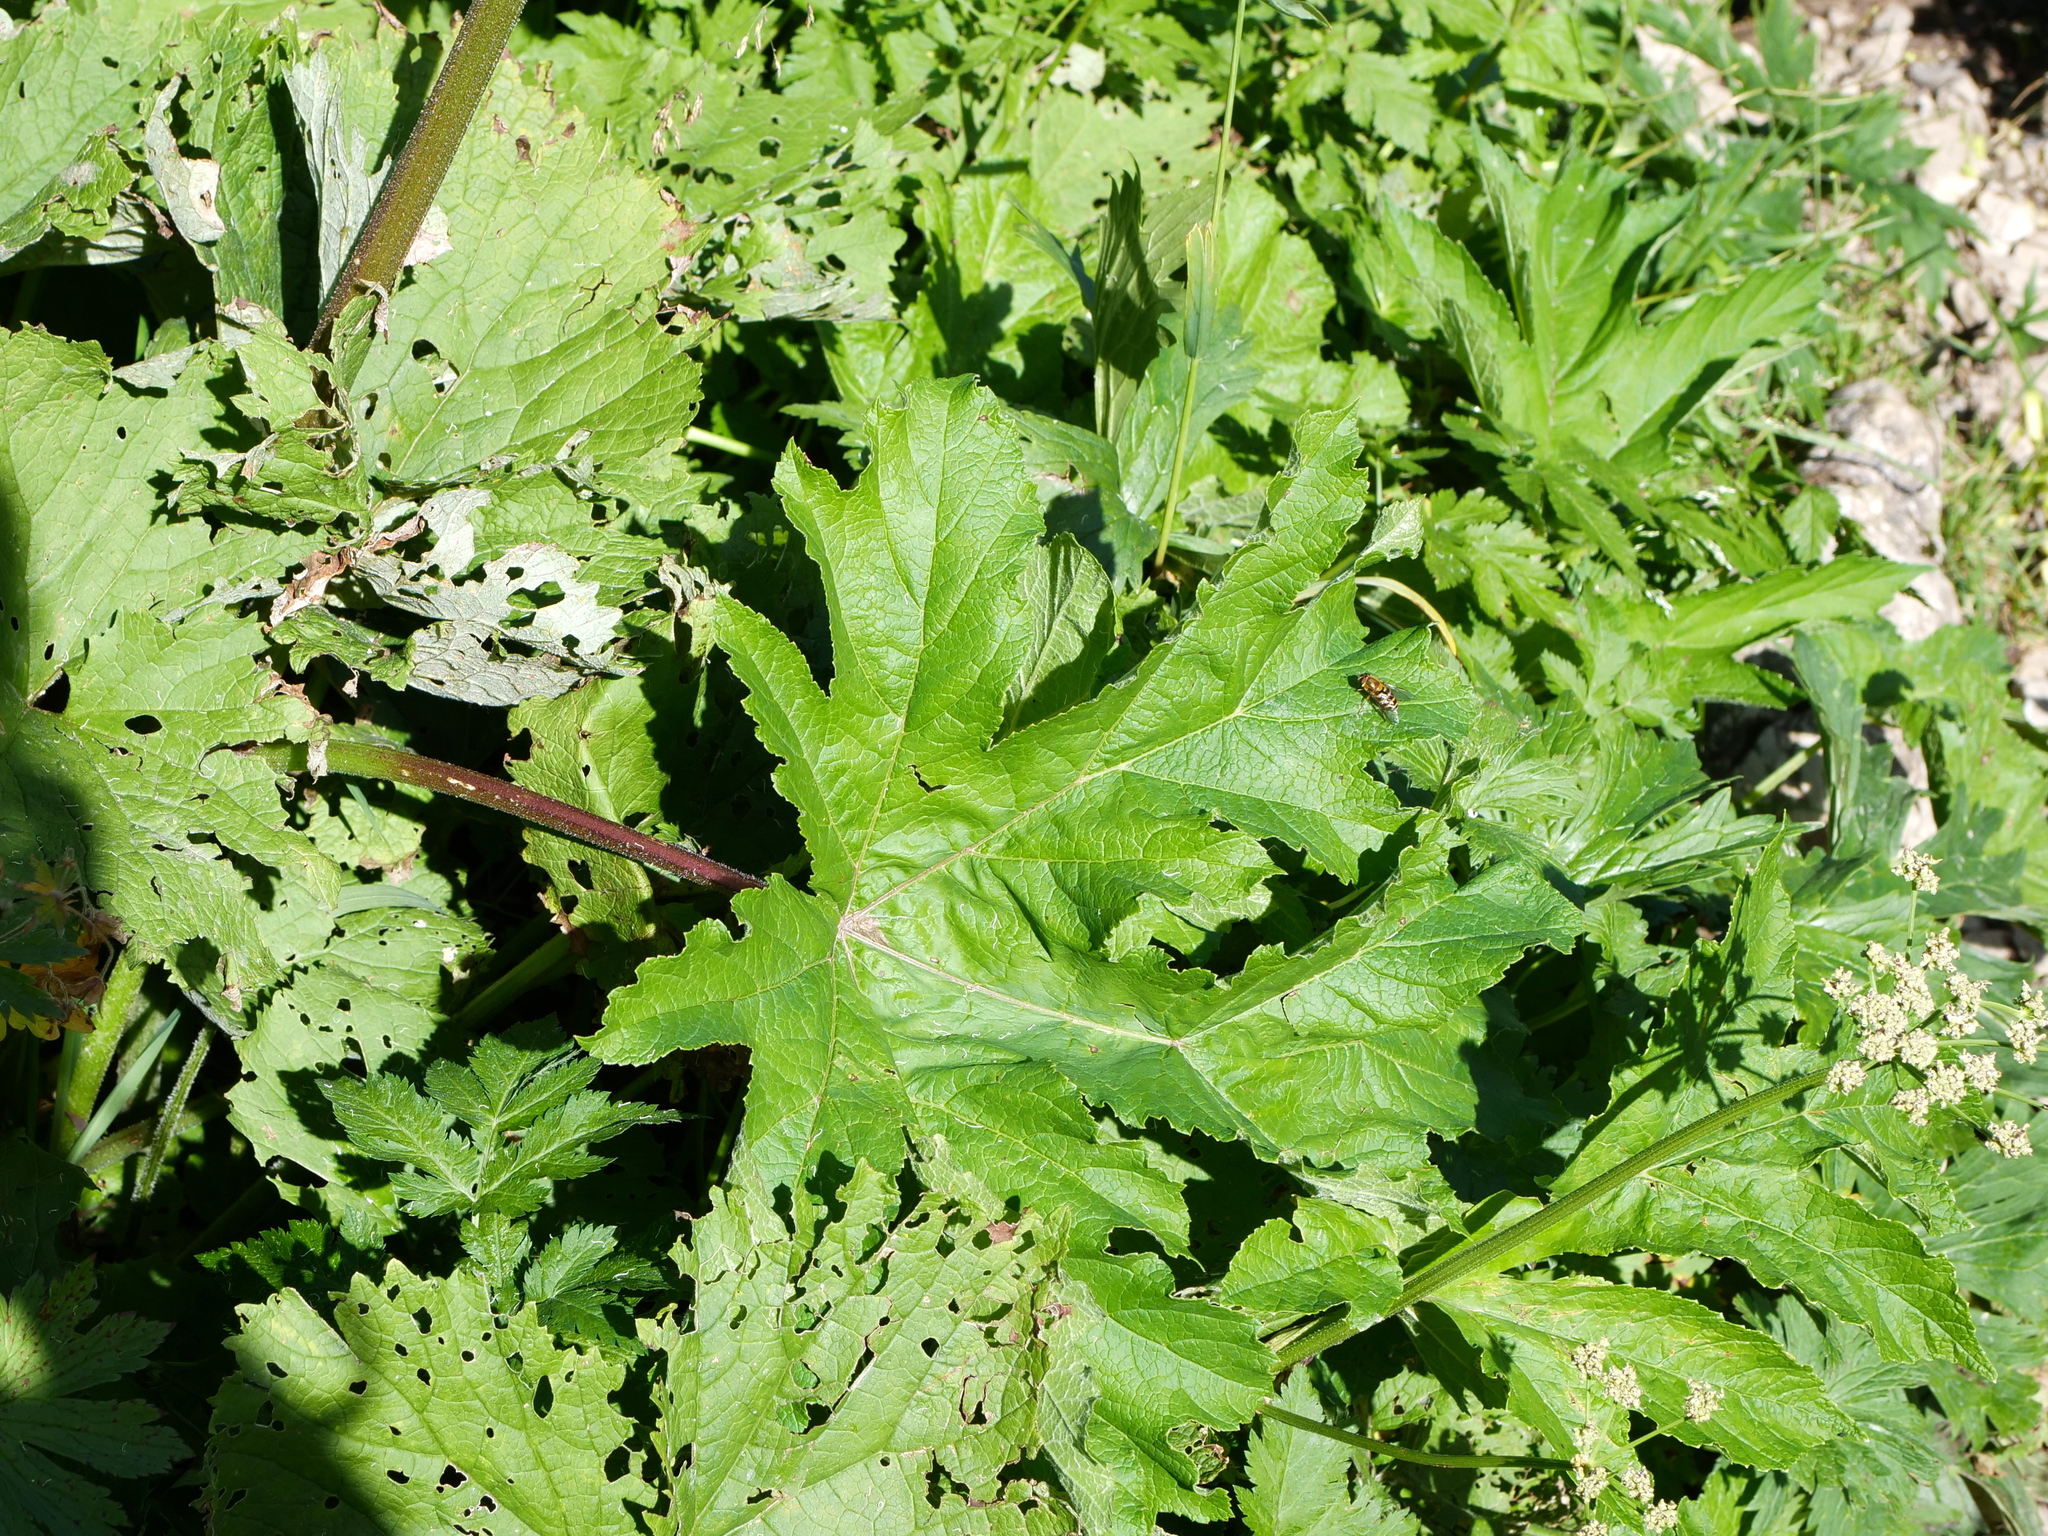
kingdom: Plantae
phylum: Tracheophyta
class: Magnoliopsida
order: Apiales
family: Apiaceae
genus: Heracleum
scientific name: Heracleum sphondylium
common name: Hogweed
